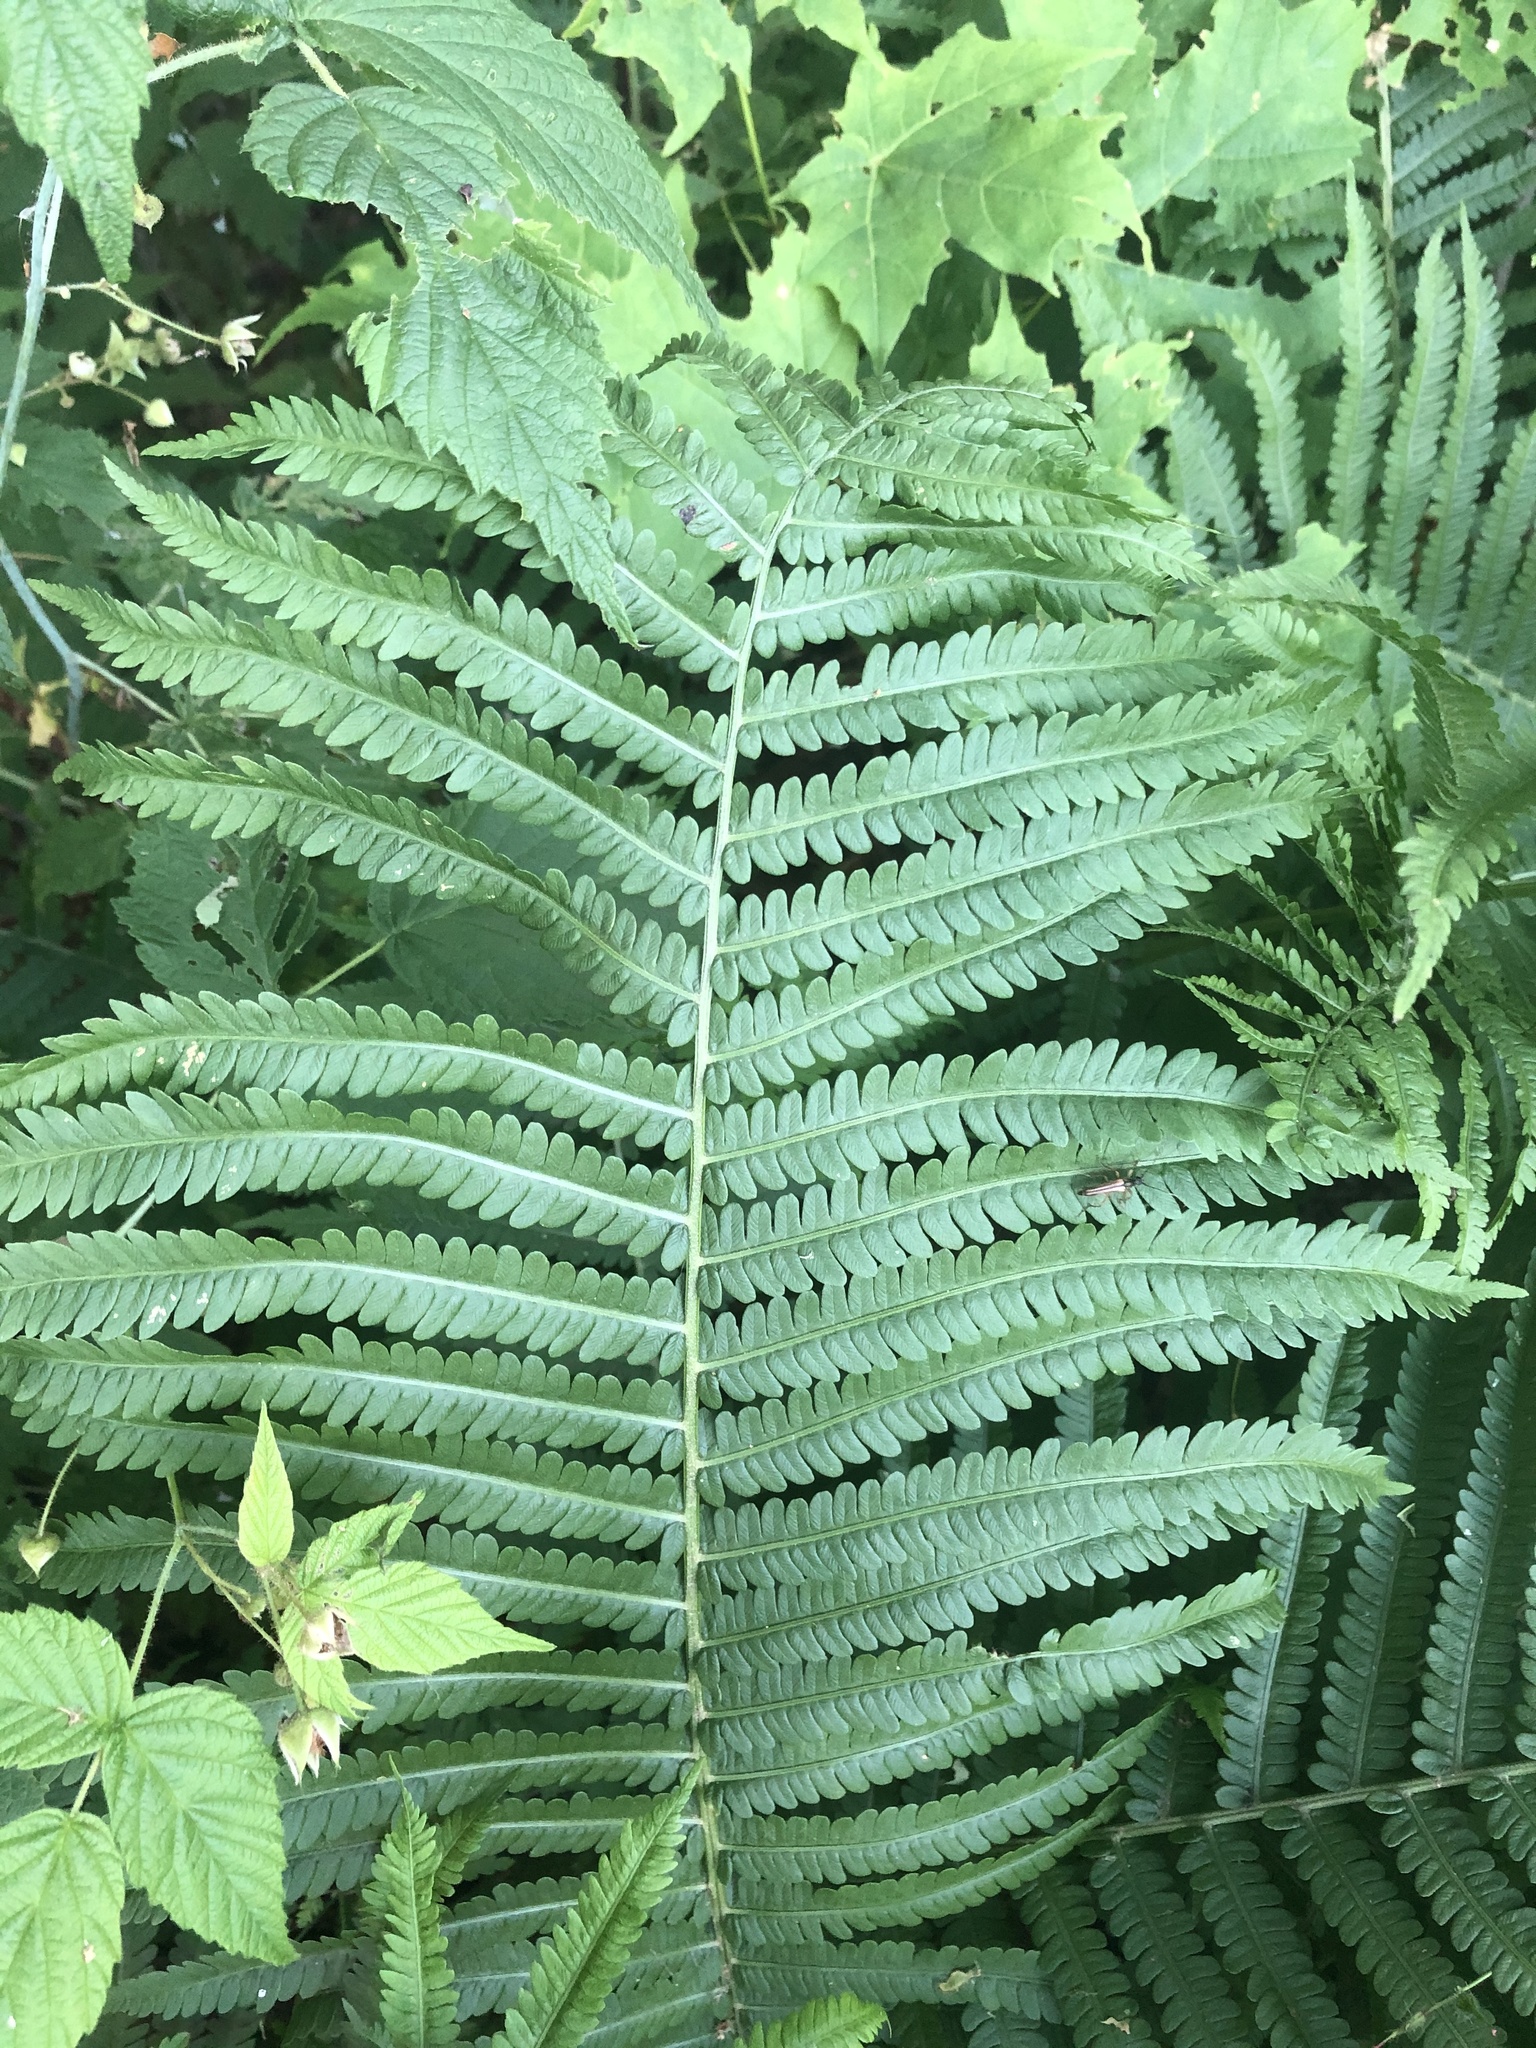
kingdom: Plantae
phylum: Tracheophyta
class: Polypodiopsida
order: Polypodiales
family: Onocleaceae
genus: Matteuccia
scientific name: Matteuccia struthiopteris
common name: Ostrich fern
